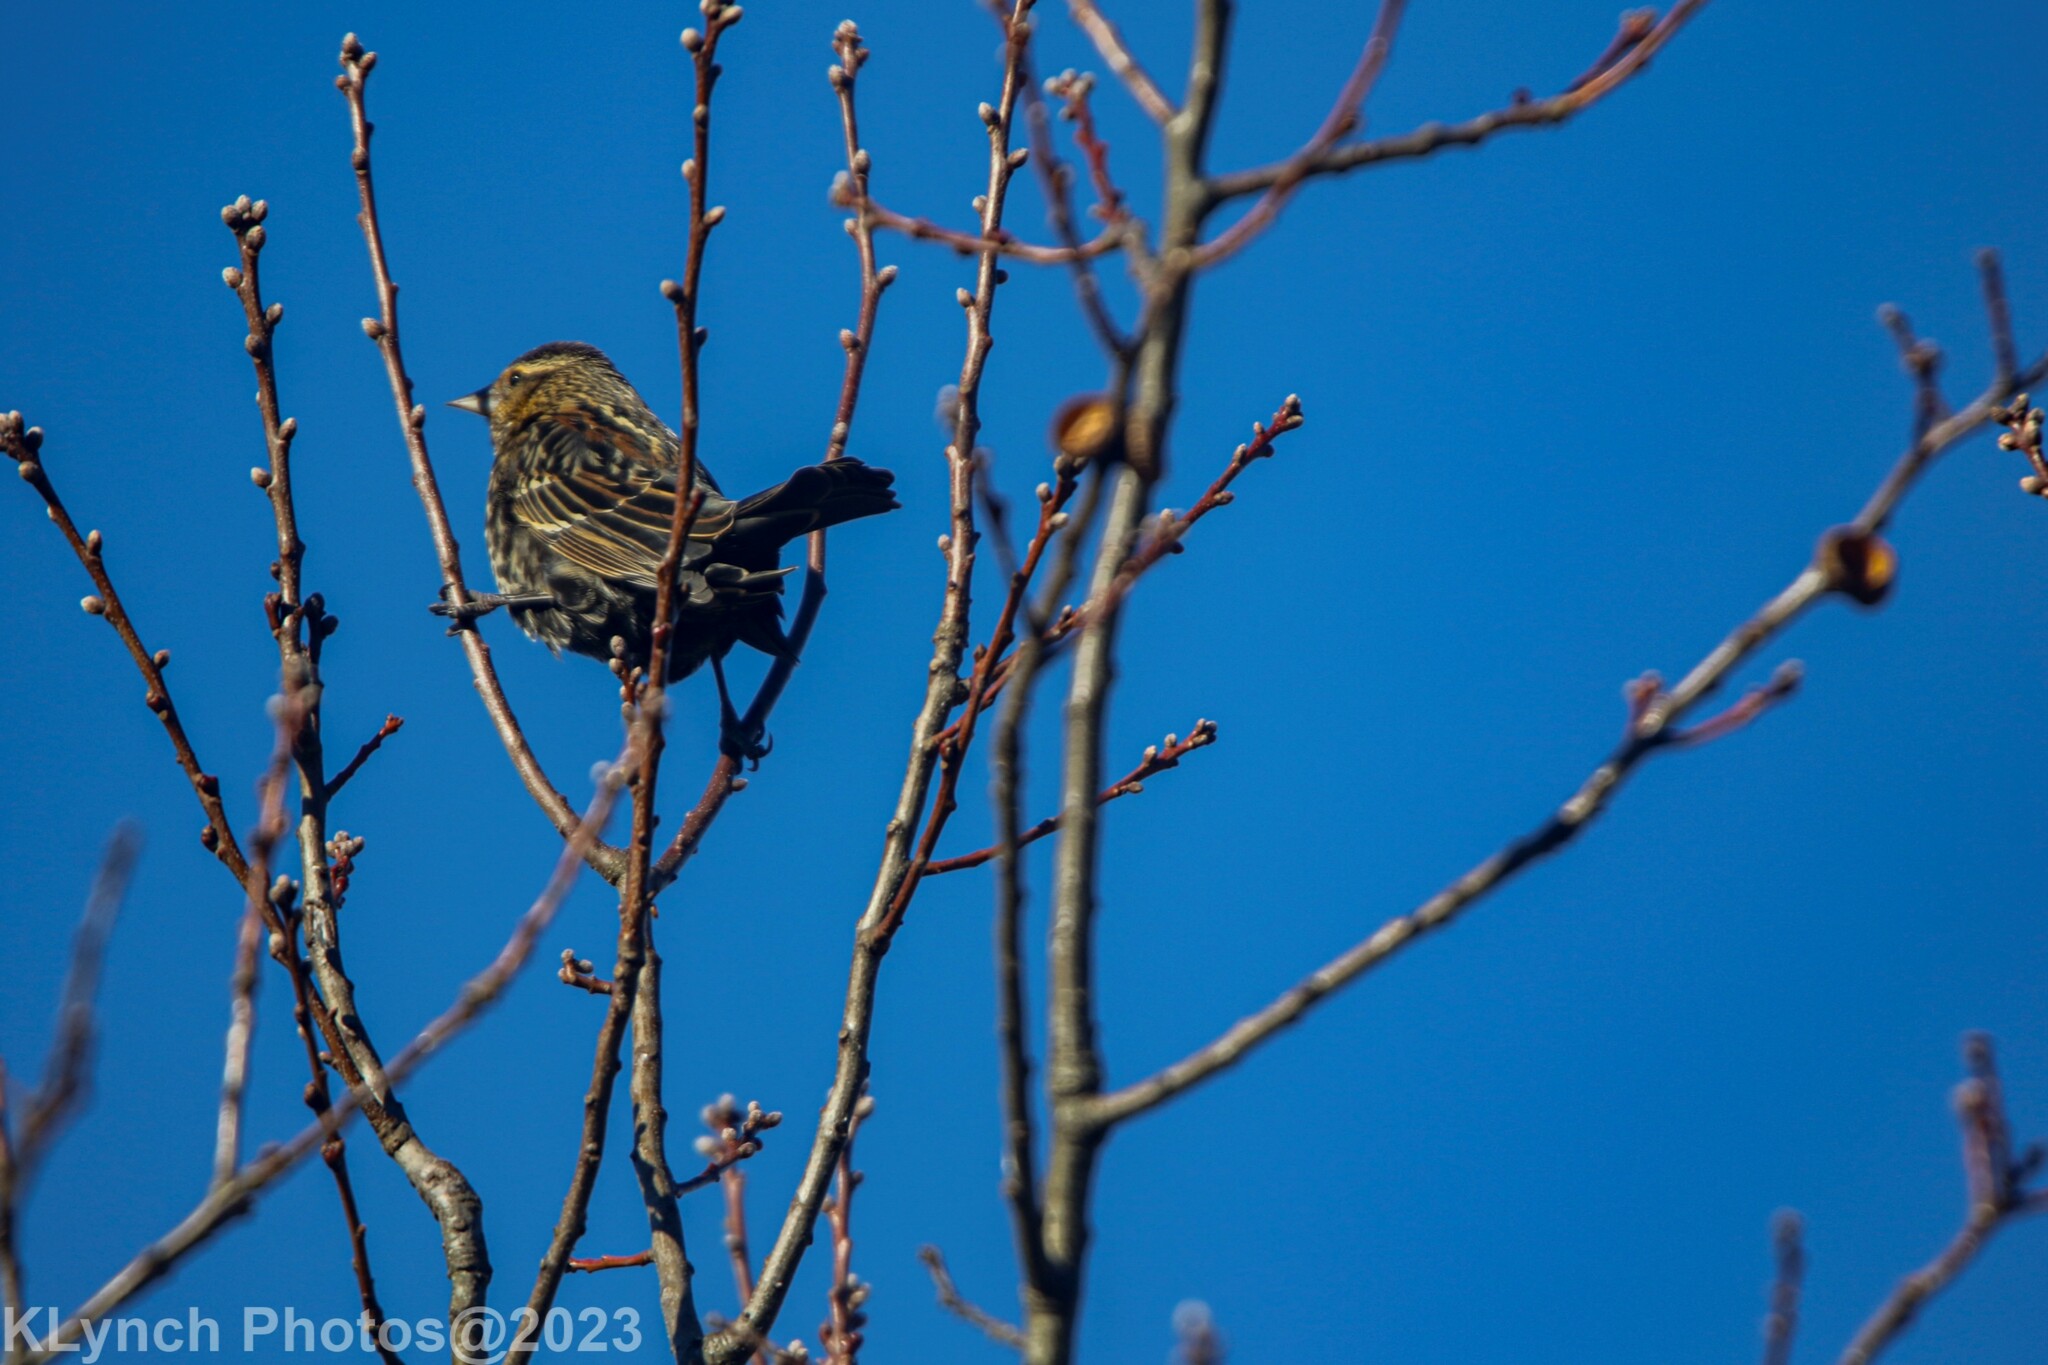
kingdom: Animalia
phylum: Chordata
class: Aves
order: Passeriformes
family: Icteridae
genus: Agelaius
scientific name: Agelaius phoeniceus
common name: Red-winged blackbird
